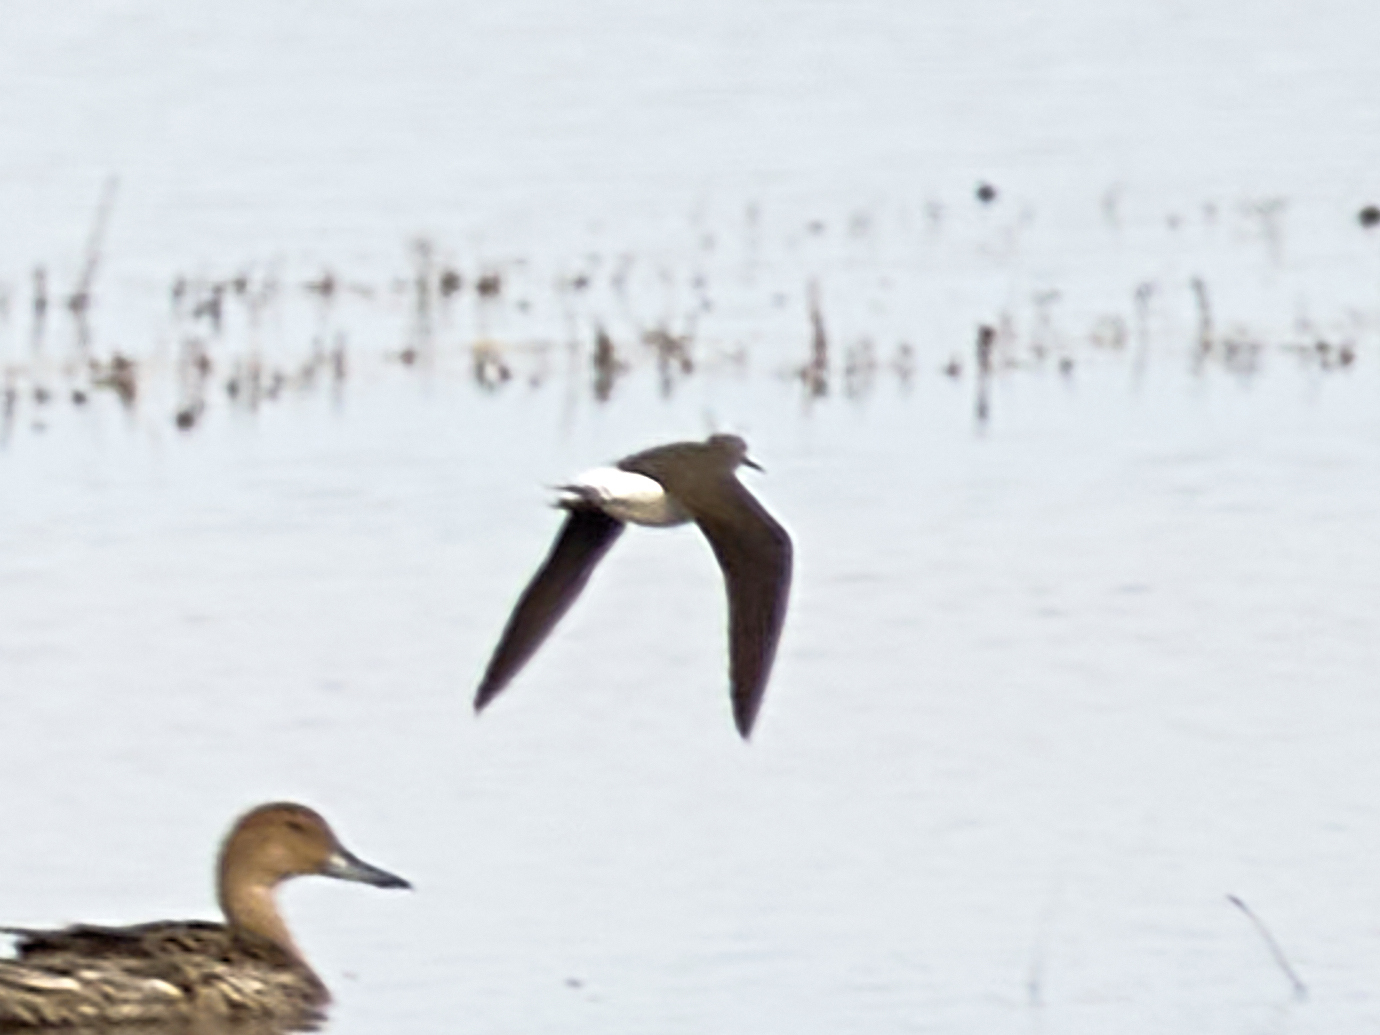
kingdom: Animalia
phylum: Chordata
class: Aves
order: Charadriiformes
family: Scolopacidae
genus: Tringa
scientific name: Tringa ochropus
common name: Green sandpiper
